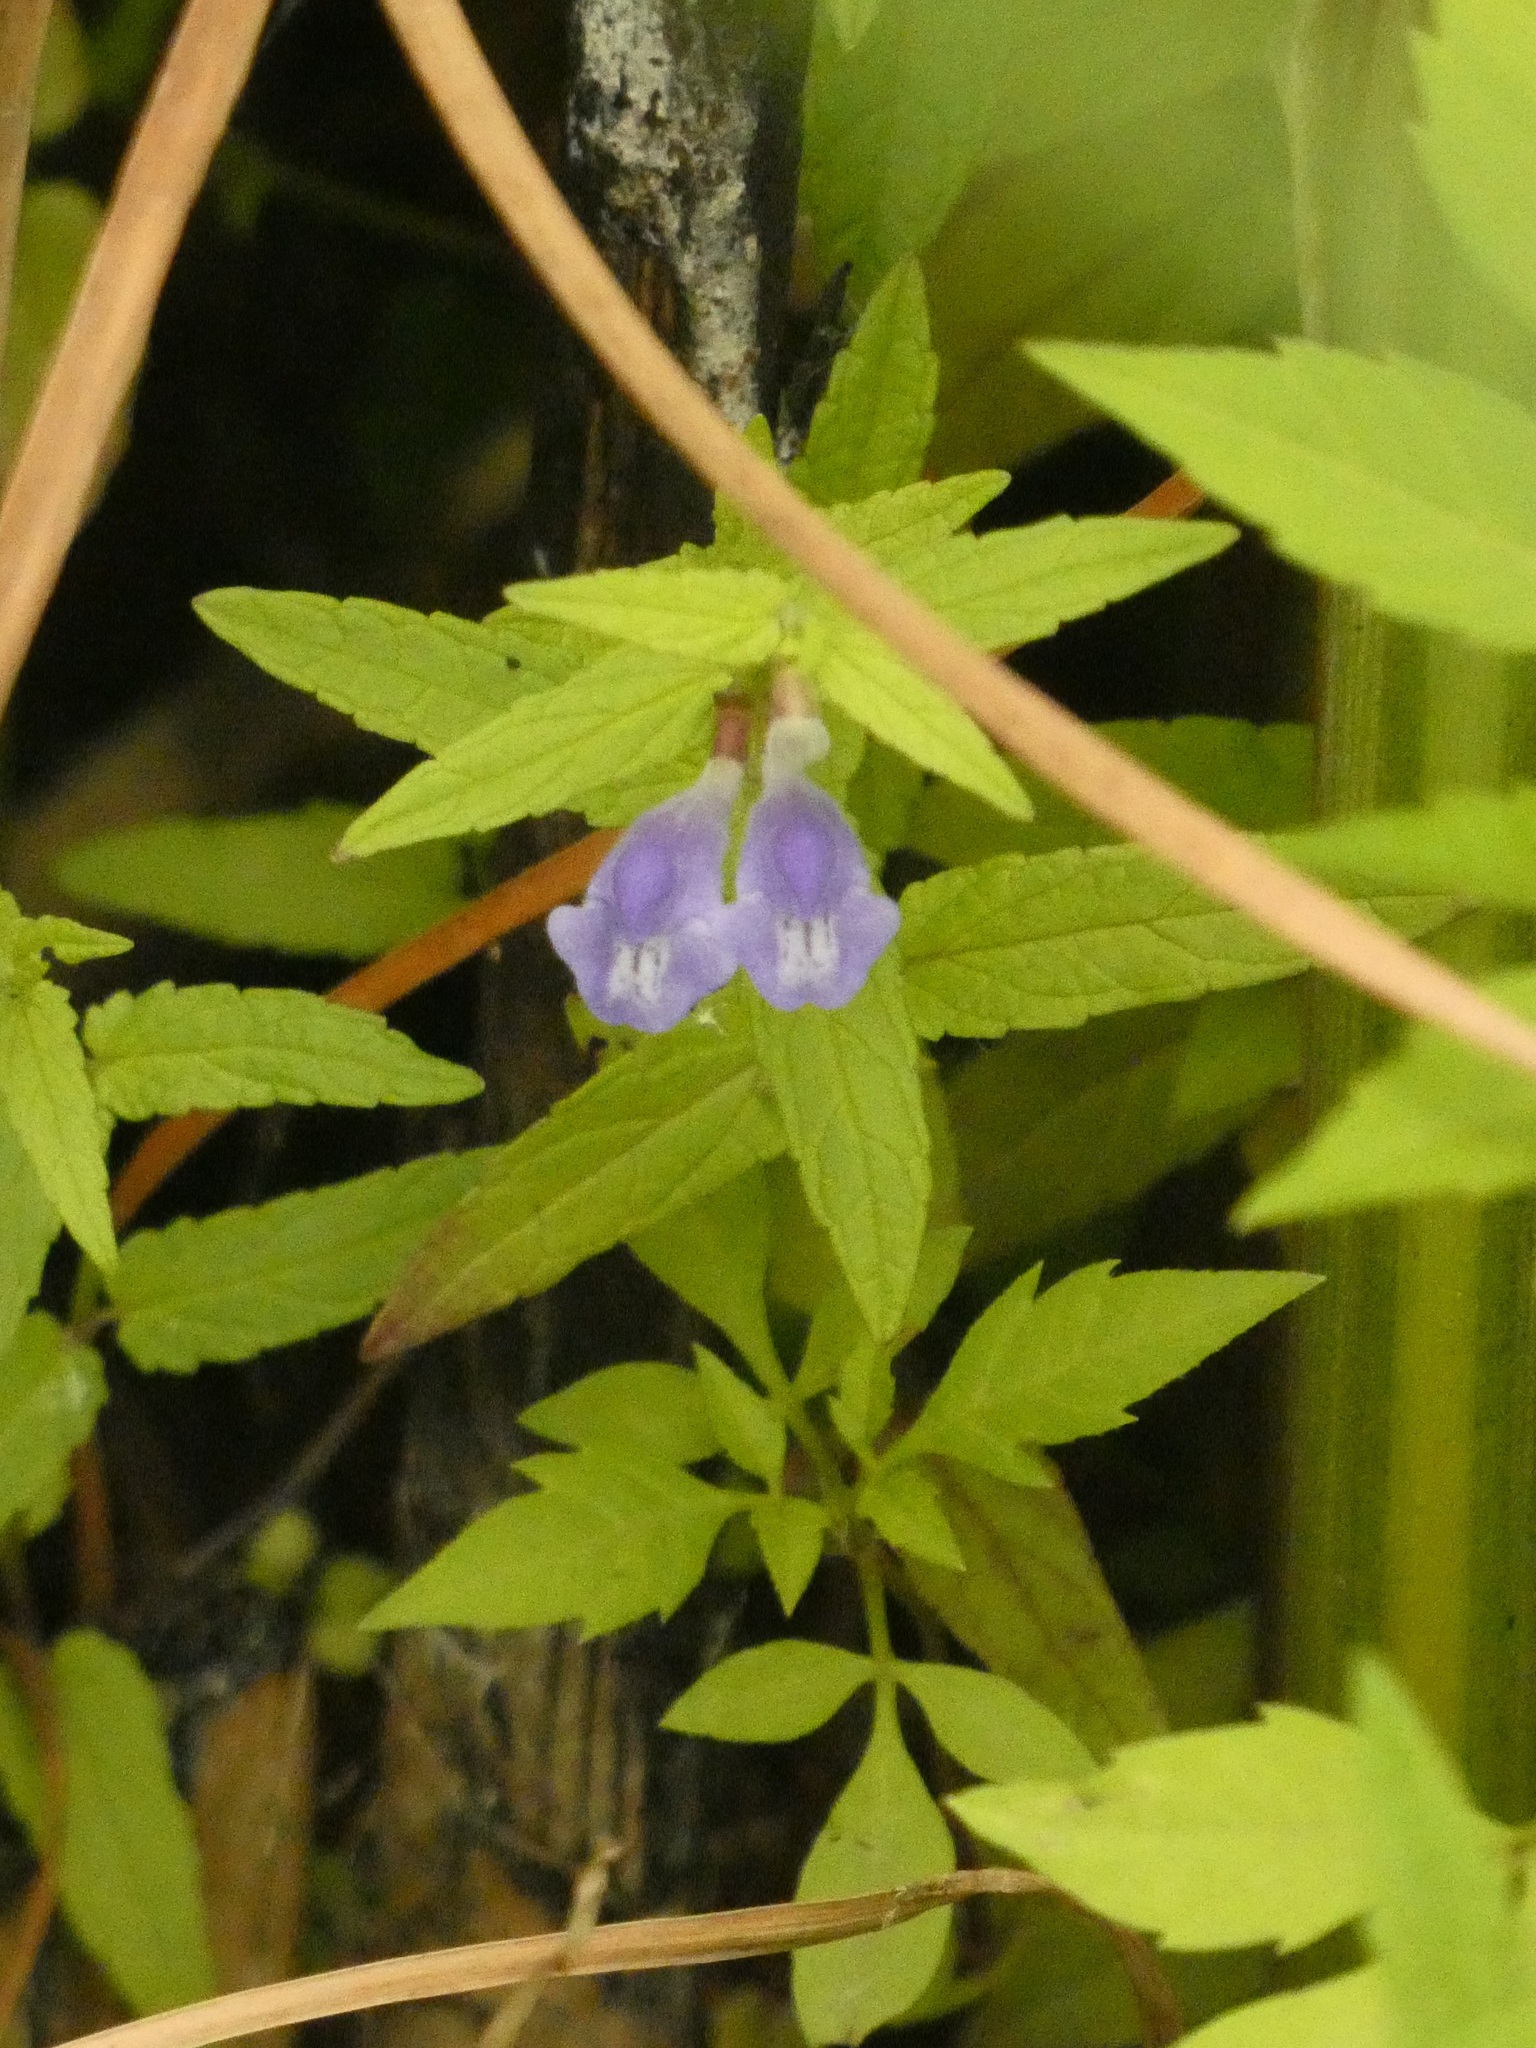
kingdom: Plantae
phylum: Tracheophyta
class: Magnoliopsida
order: Lamiales
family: Lamiaceae
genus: Scutellaria
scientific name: Scutellaria galericulata
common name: Skullcap
